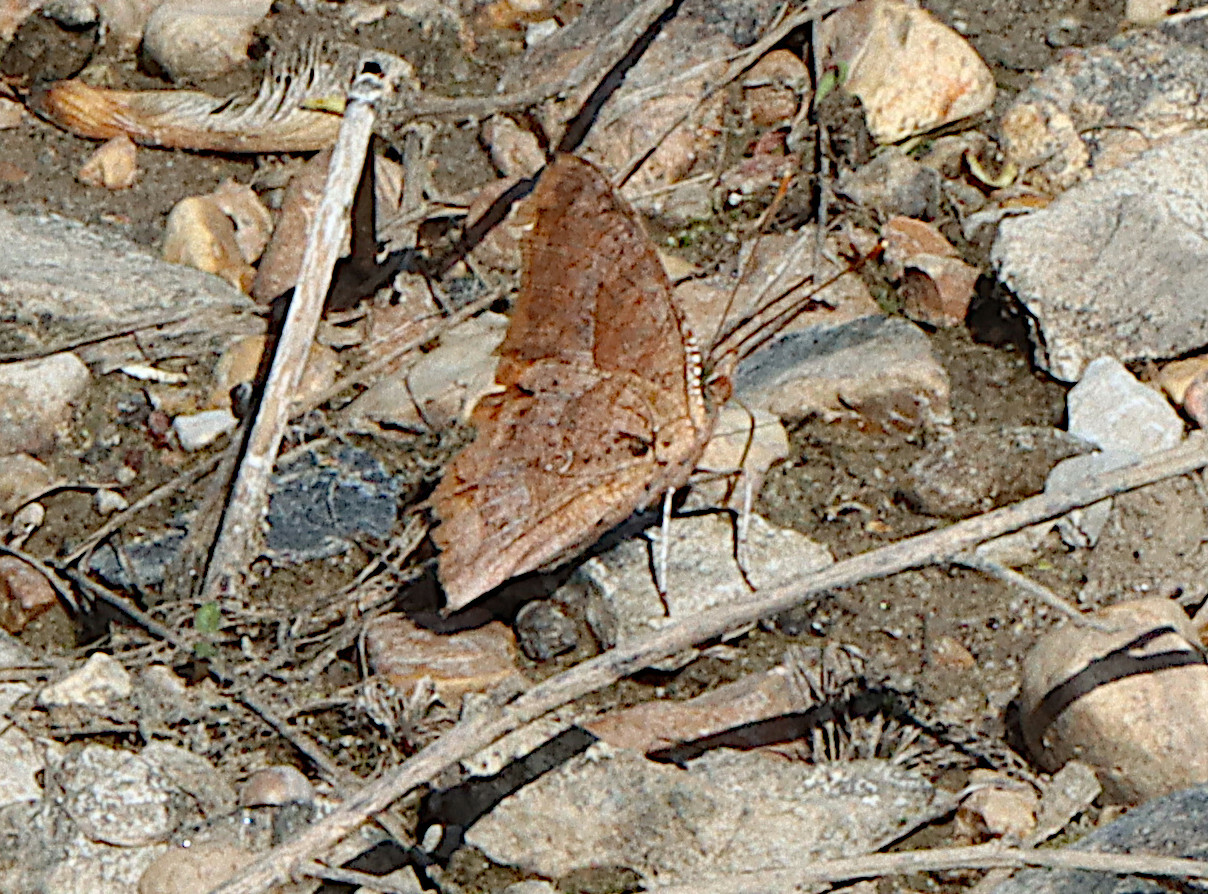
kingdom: Animalia
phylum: Arthropoda
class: Insecta
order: Lepidoptera
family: Nymphalidae
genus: Polygonia
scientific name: Polygonia interrogationis
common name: Question mark
